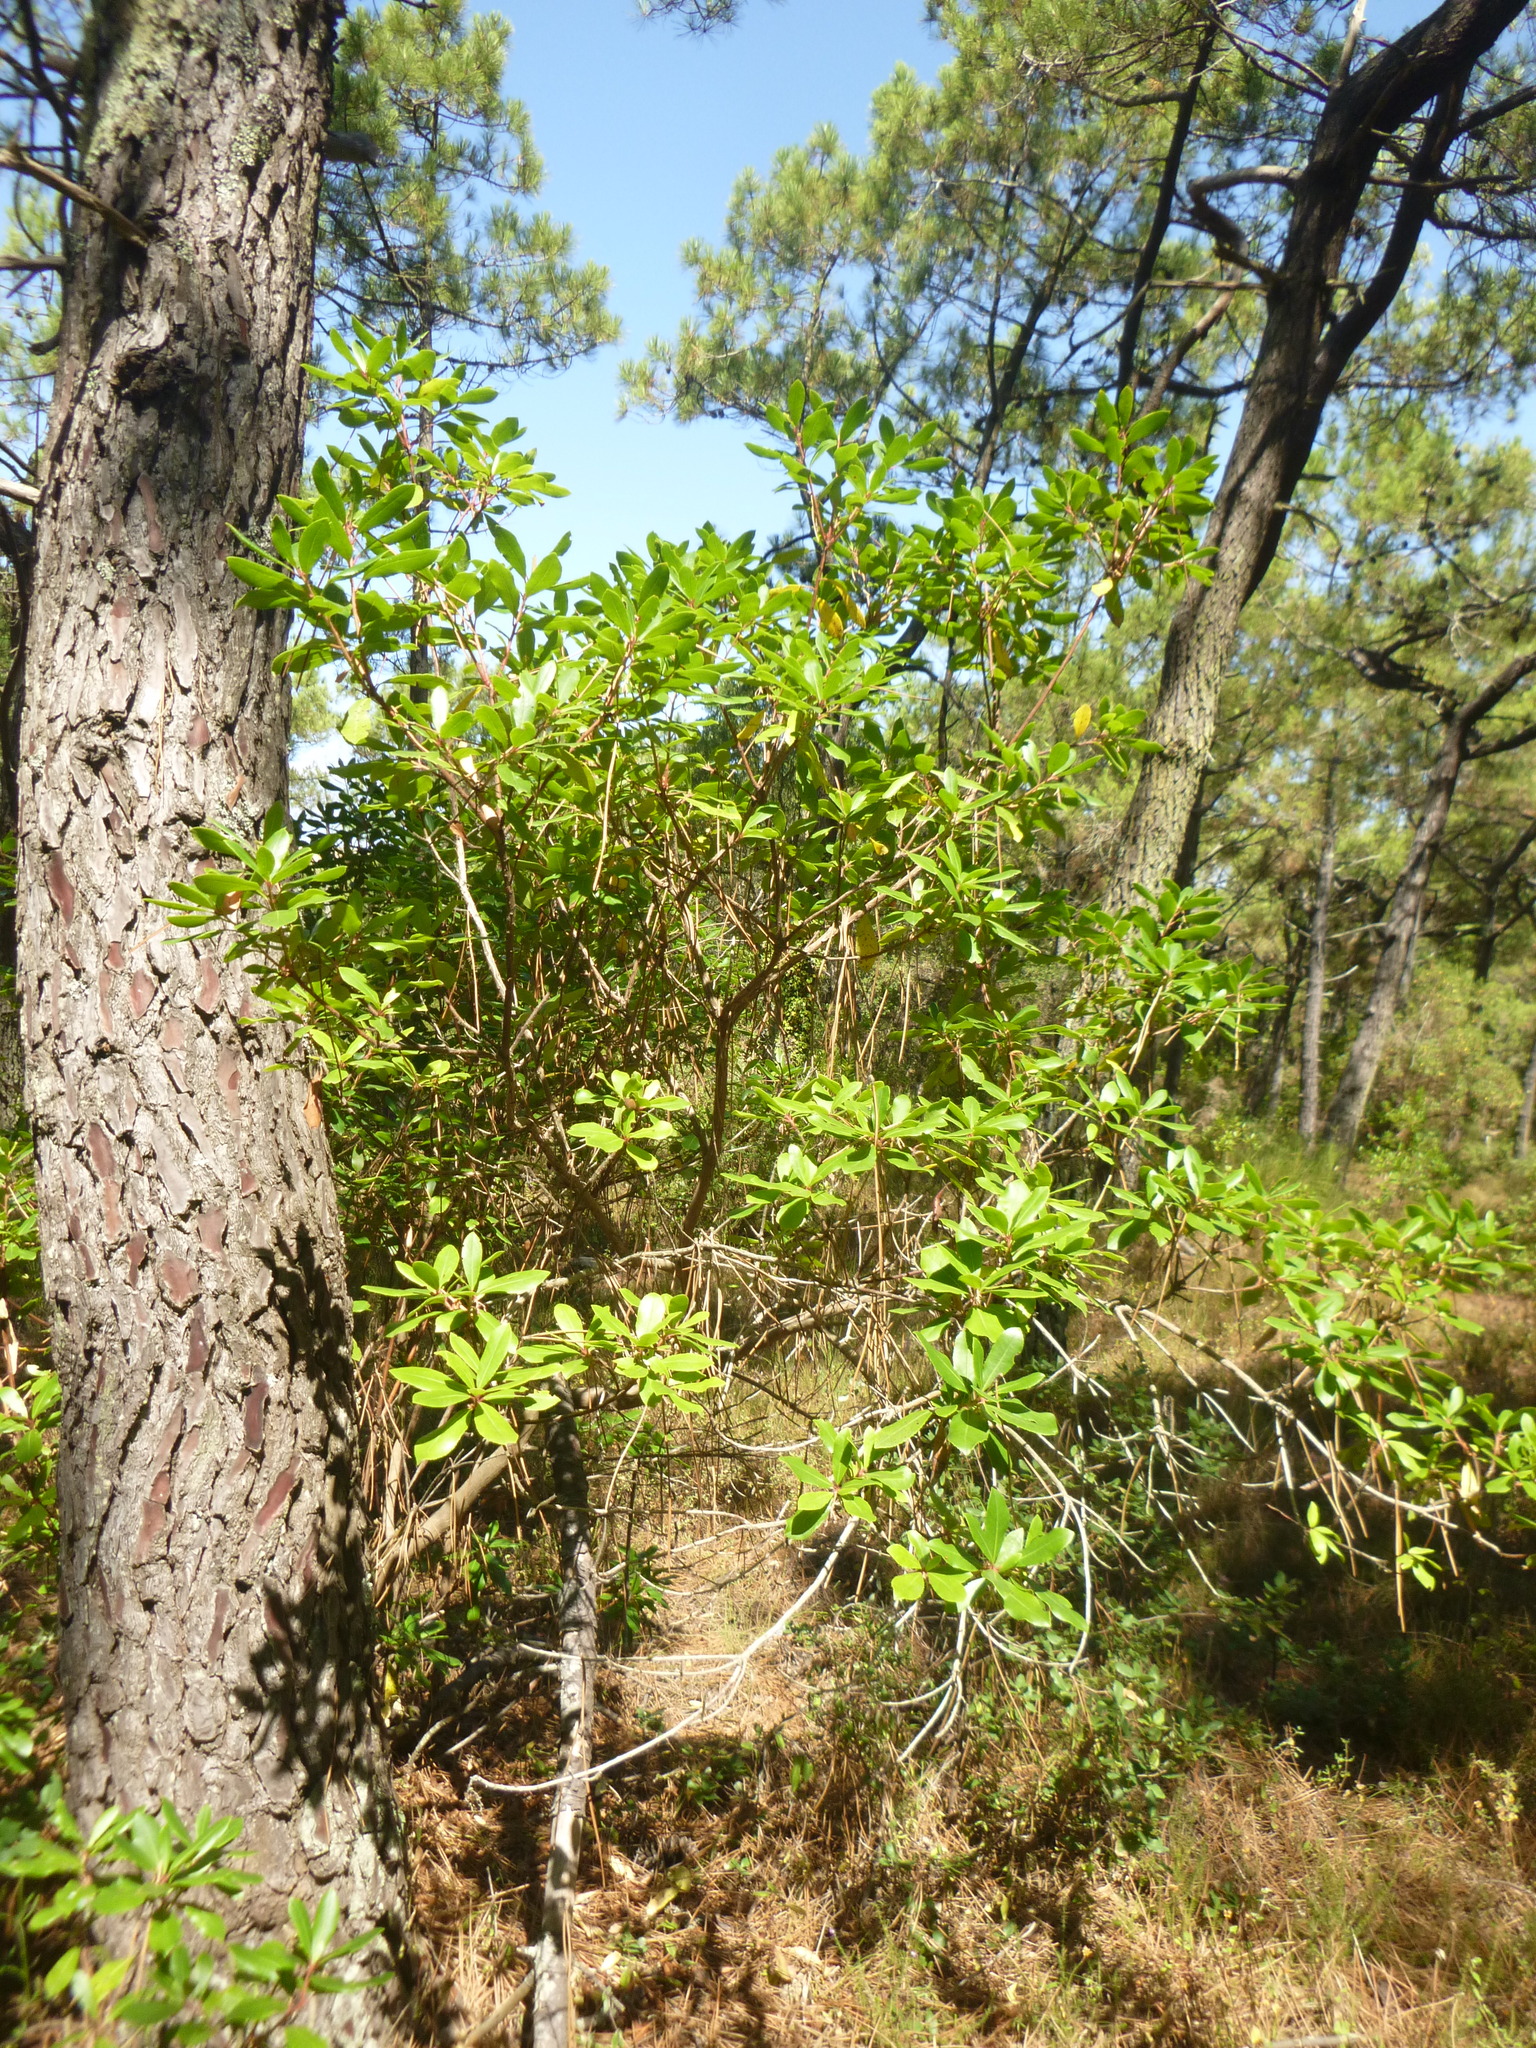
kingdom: Plantae
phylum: Tracheophyta
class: Magnoliopsida
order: Ericales
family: Ericaceae
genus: Arbutus
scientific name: Arbutus unedo
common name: Strawberry-tree
